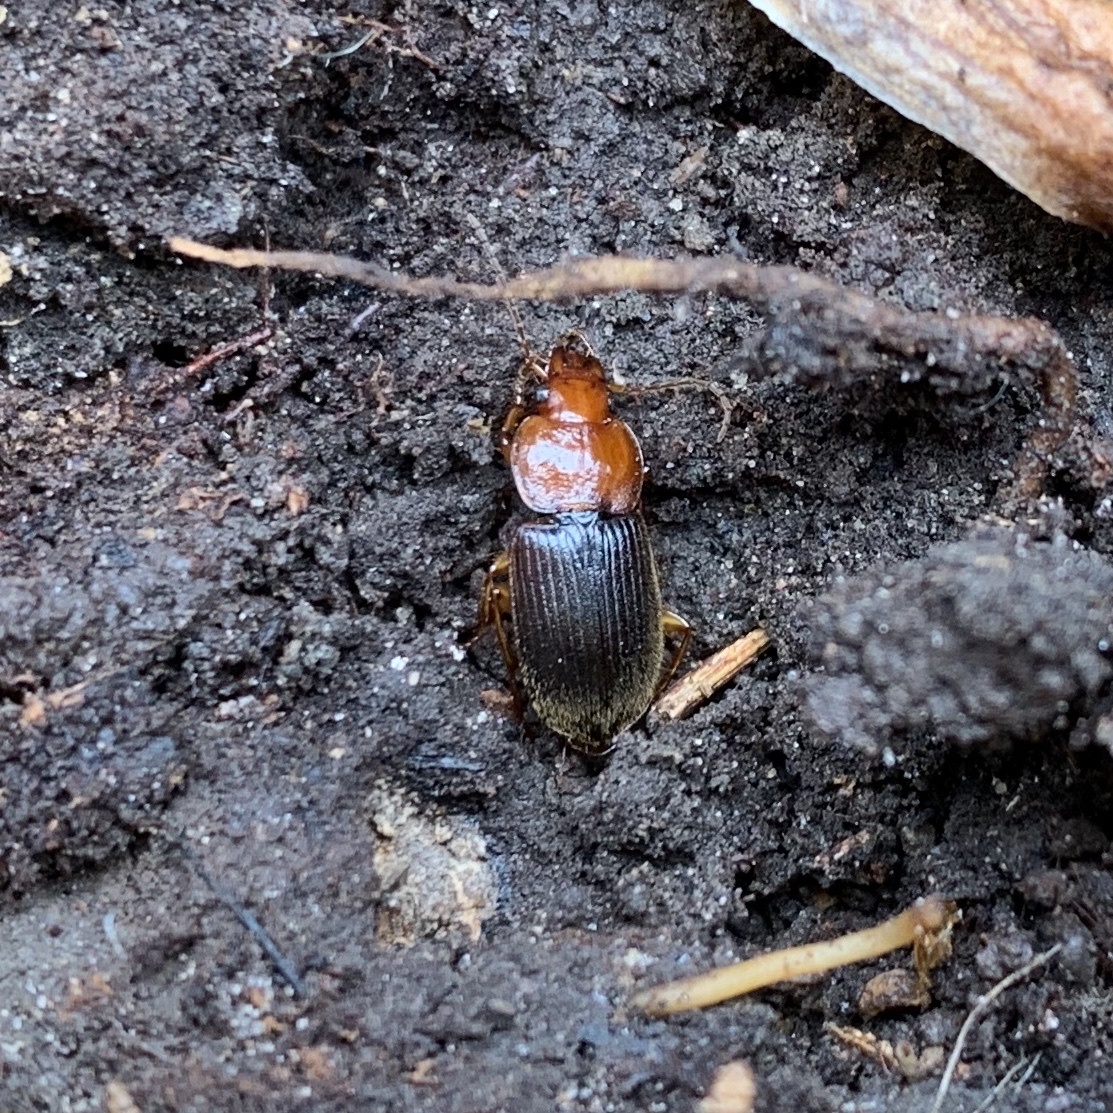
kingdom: Animalia
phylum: Arthropoda
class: Insecta
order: Coleoptera
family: Carabidae
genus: Amphasia
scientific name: Amphasia interstitialis
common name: Red-headed ground beetle
